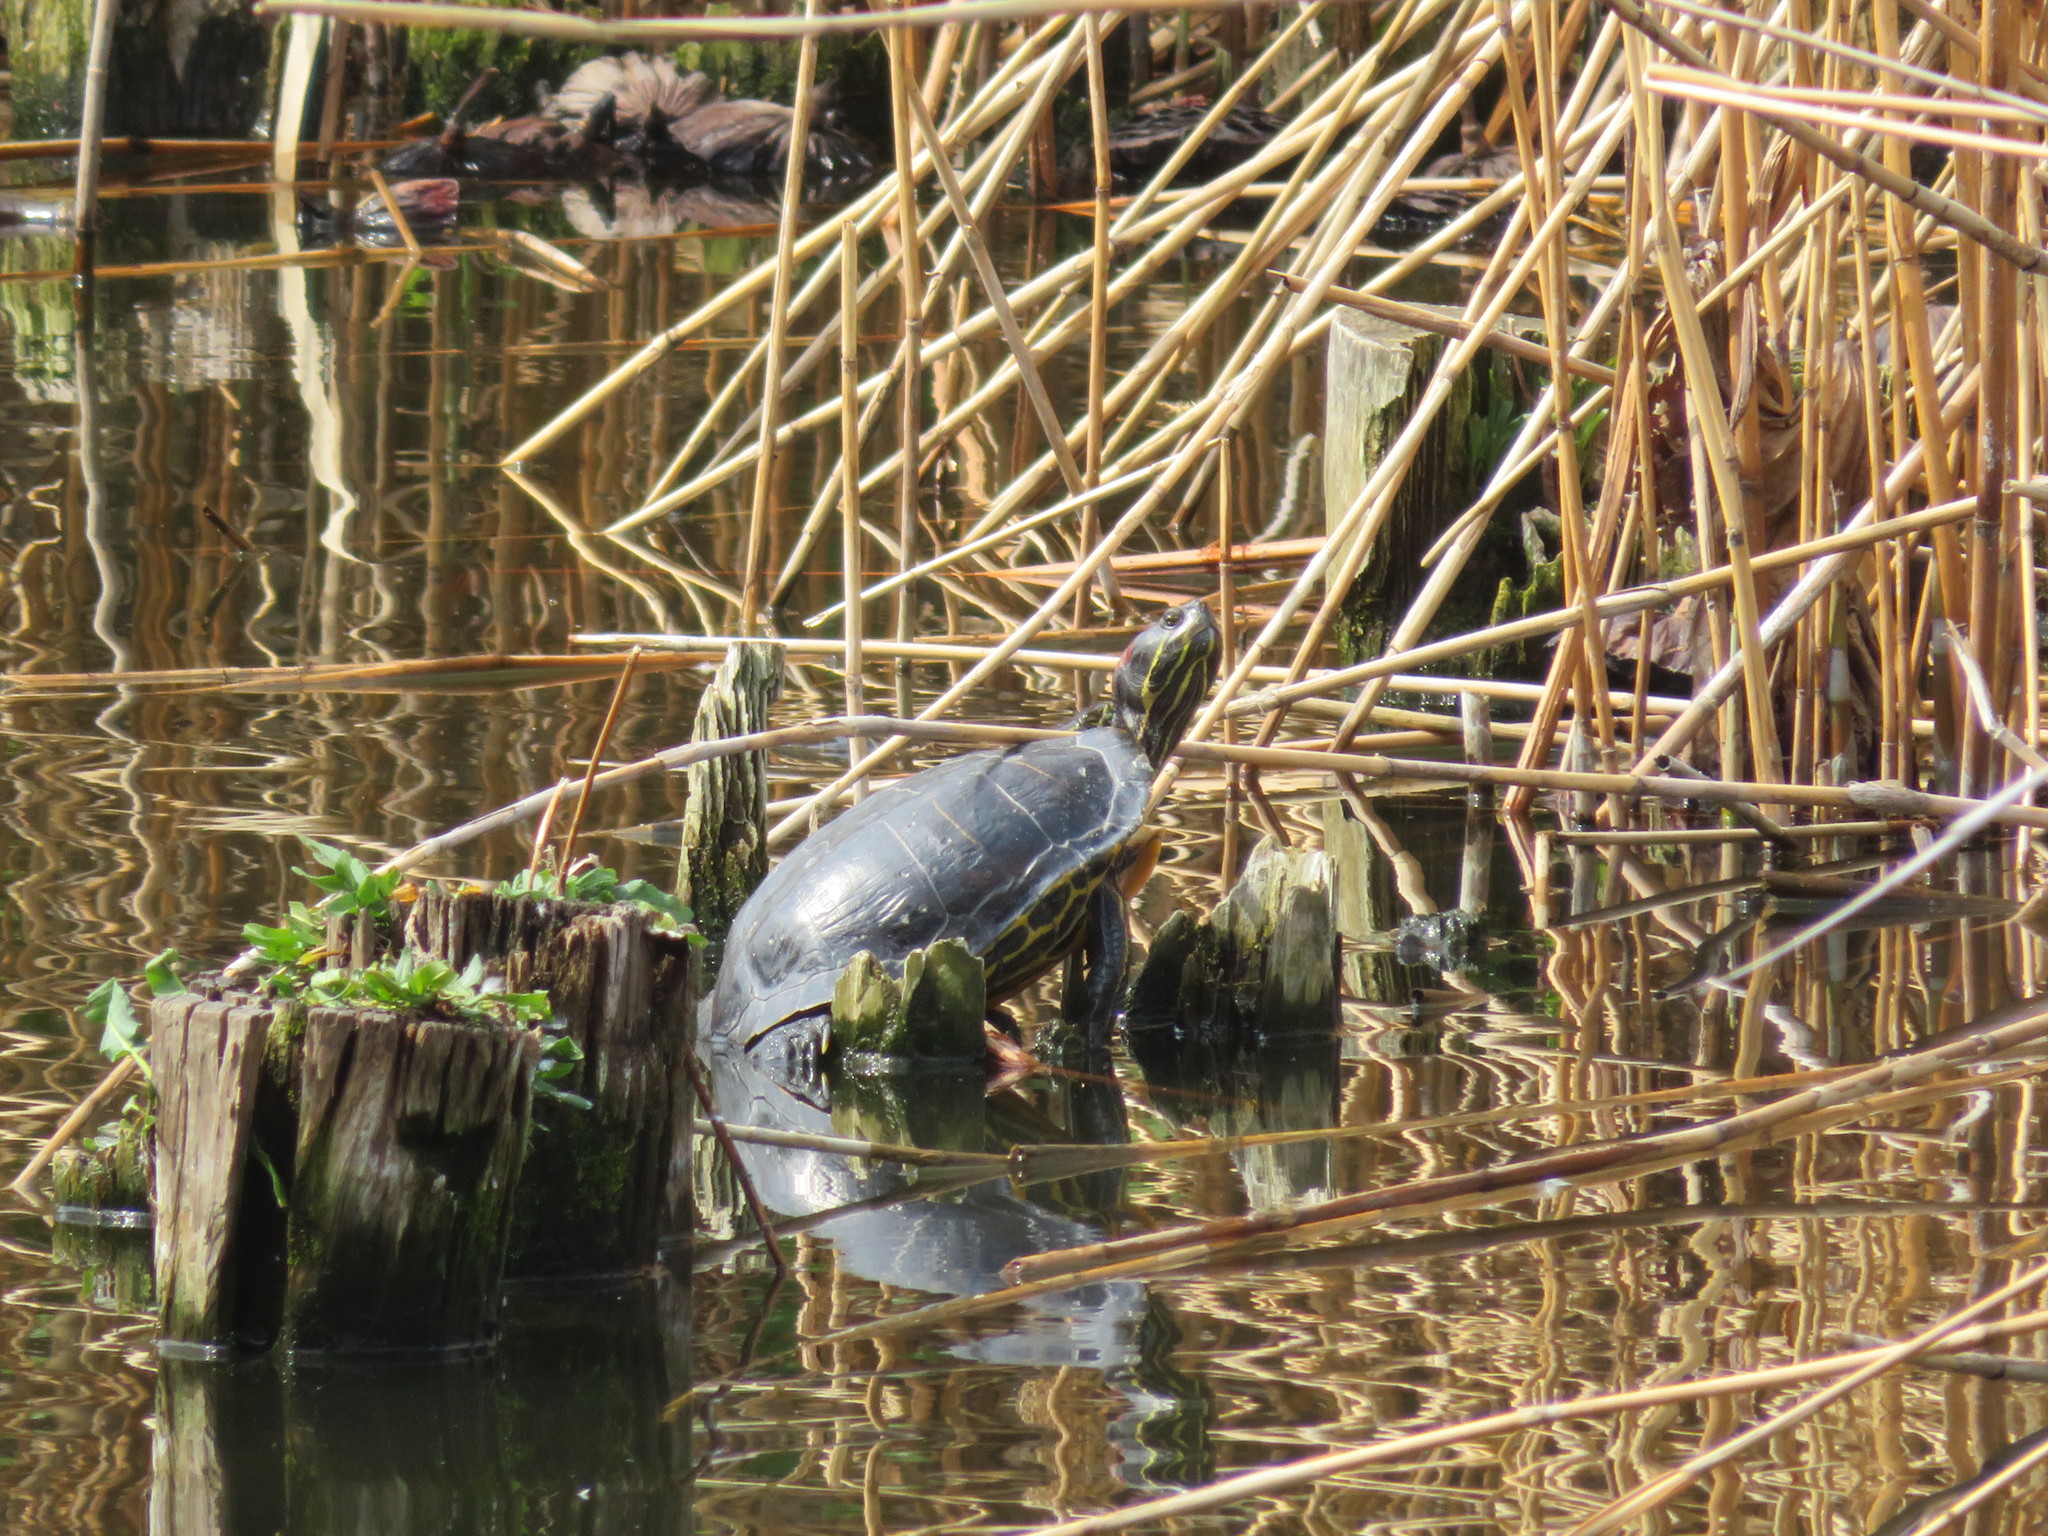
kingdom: Animalia
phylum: Chordata
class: Testudines
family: Emydidae
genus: Trachemys
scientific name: Trachemys scripta
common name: Slider
